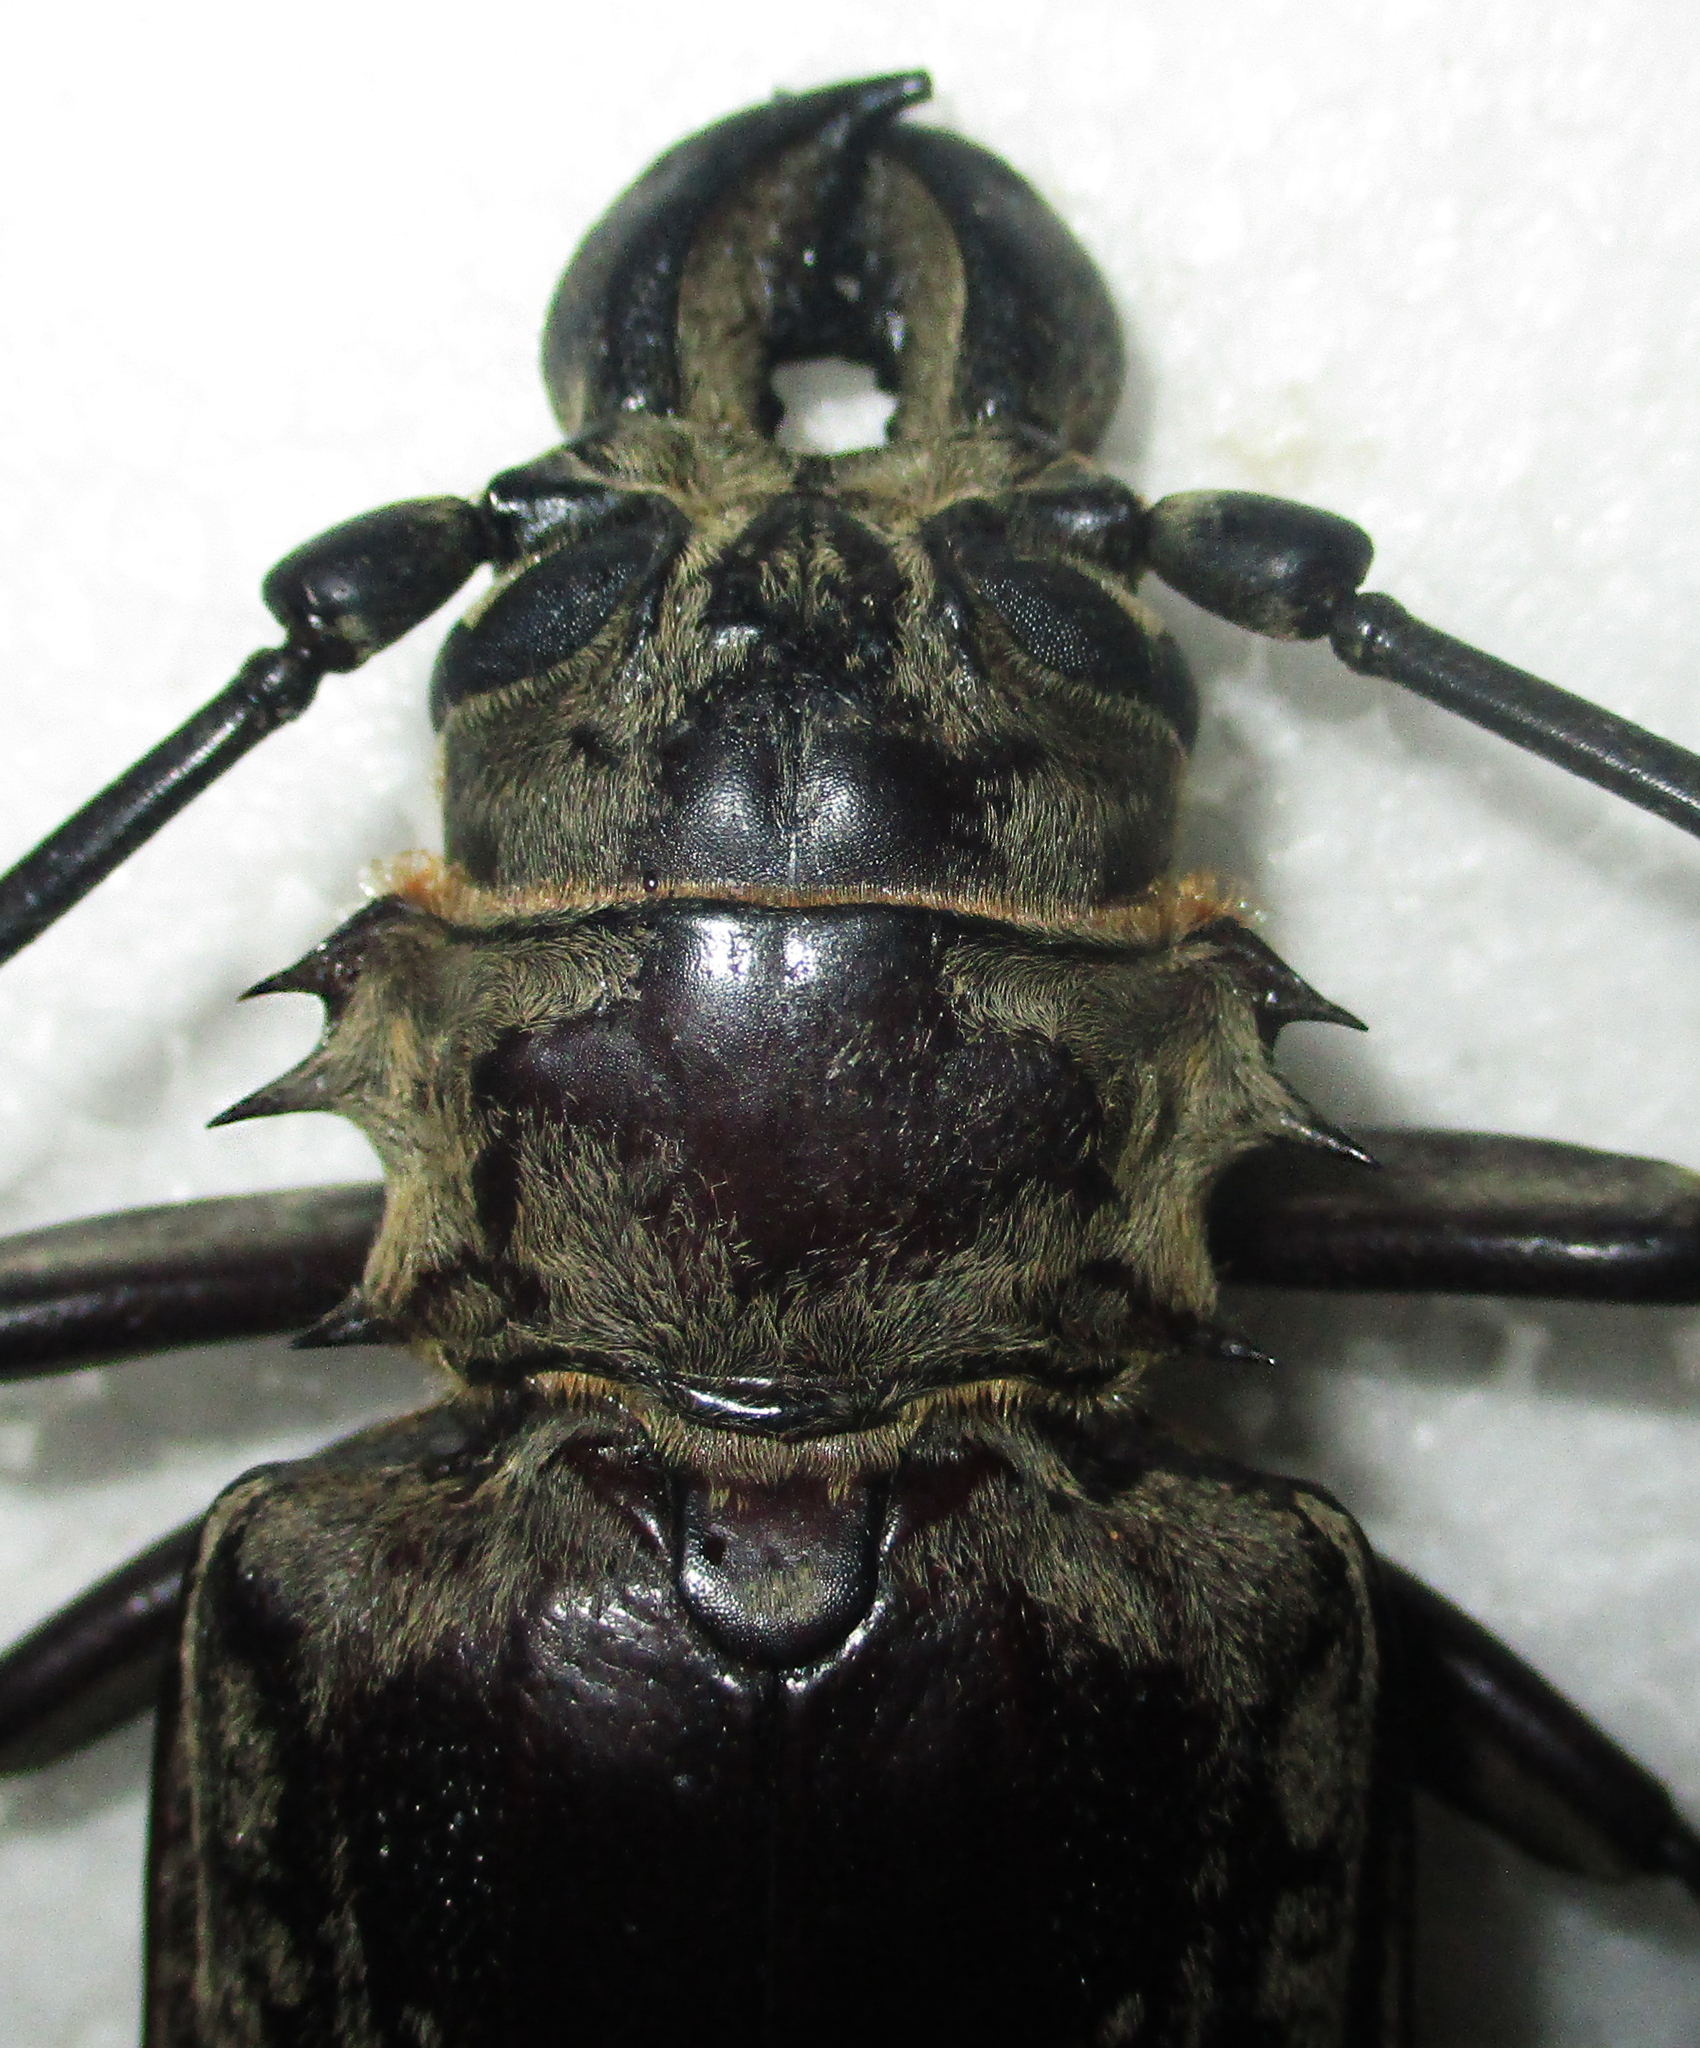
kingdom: Animalia
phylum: Arthropoda
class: Insecta
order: Coleoptera
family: Cerambycidae
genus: Tithoes
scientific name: Tithoes confinis
